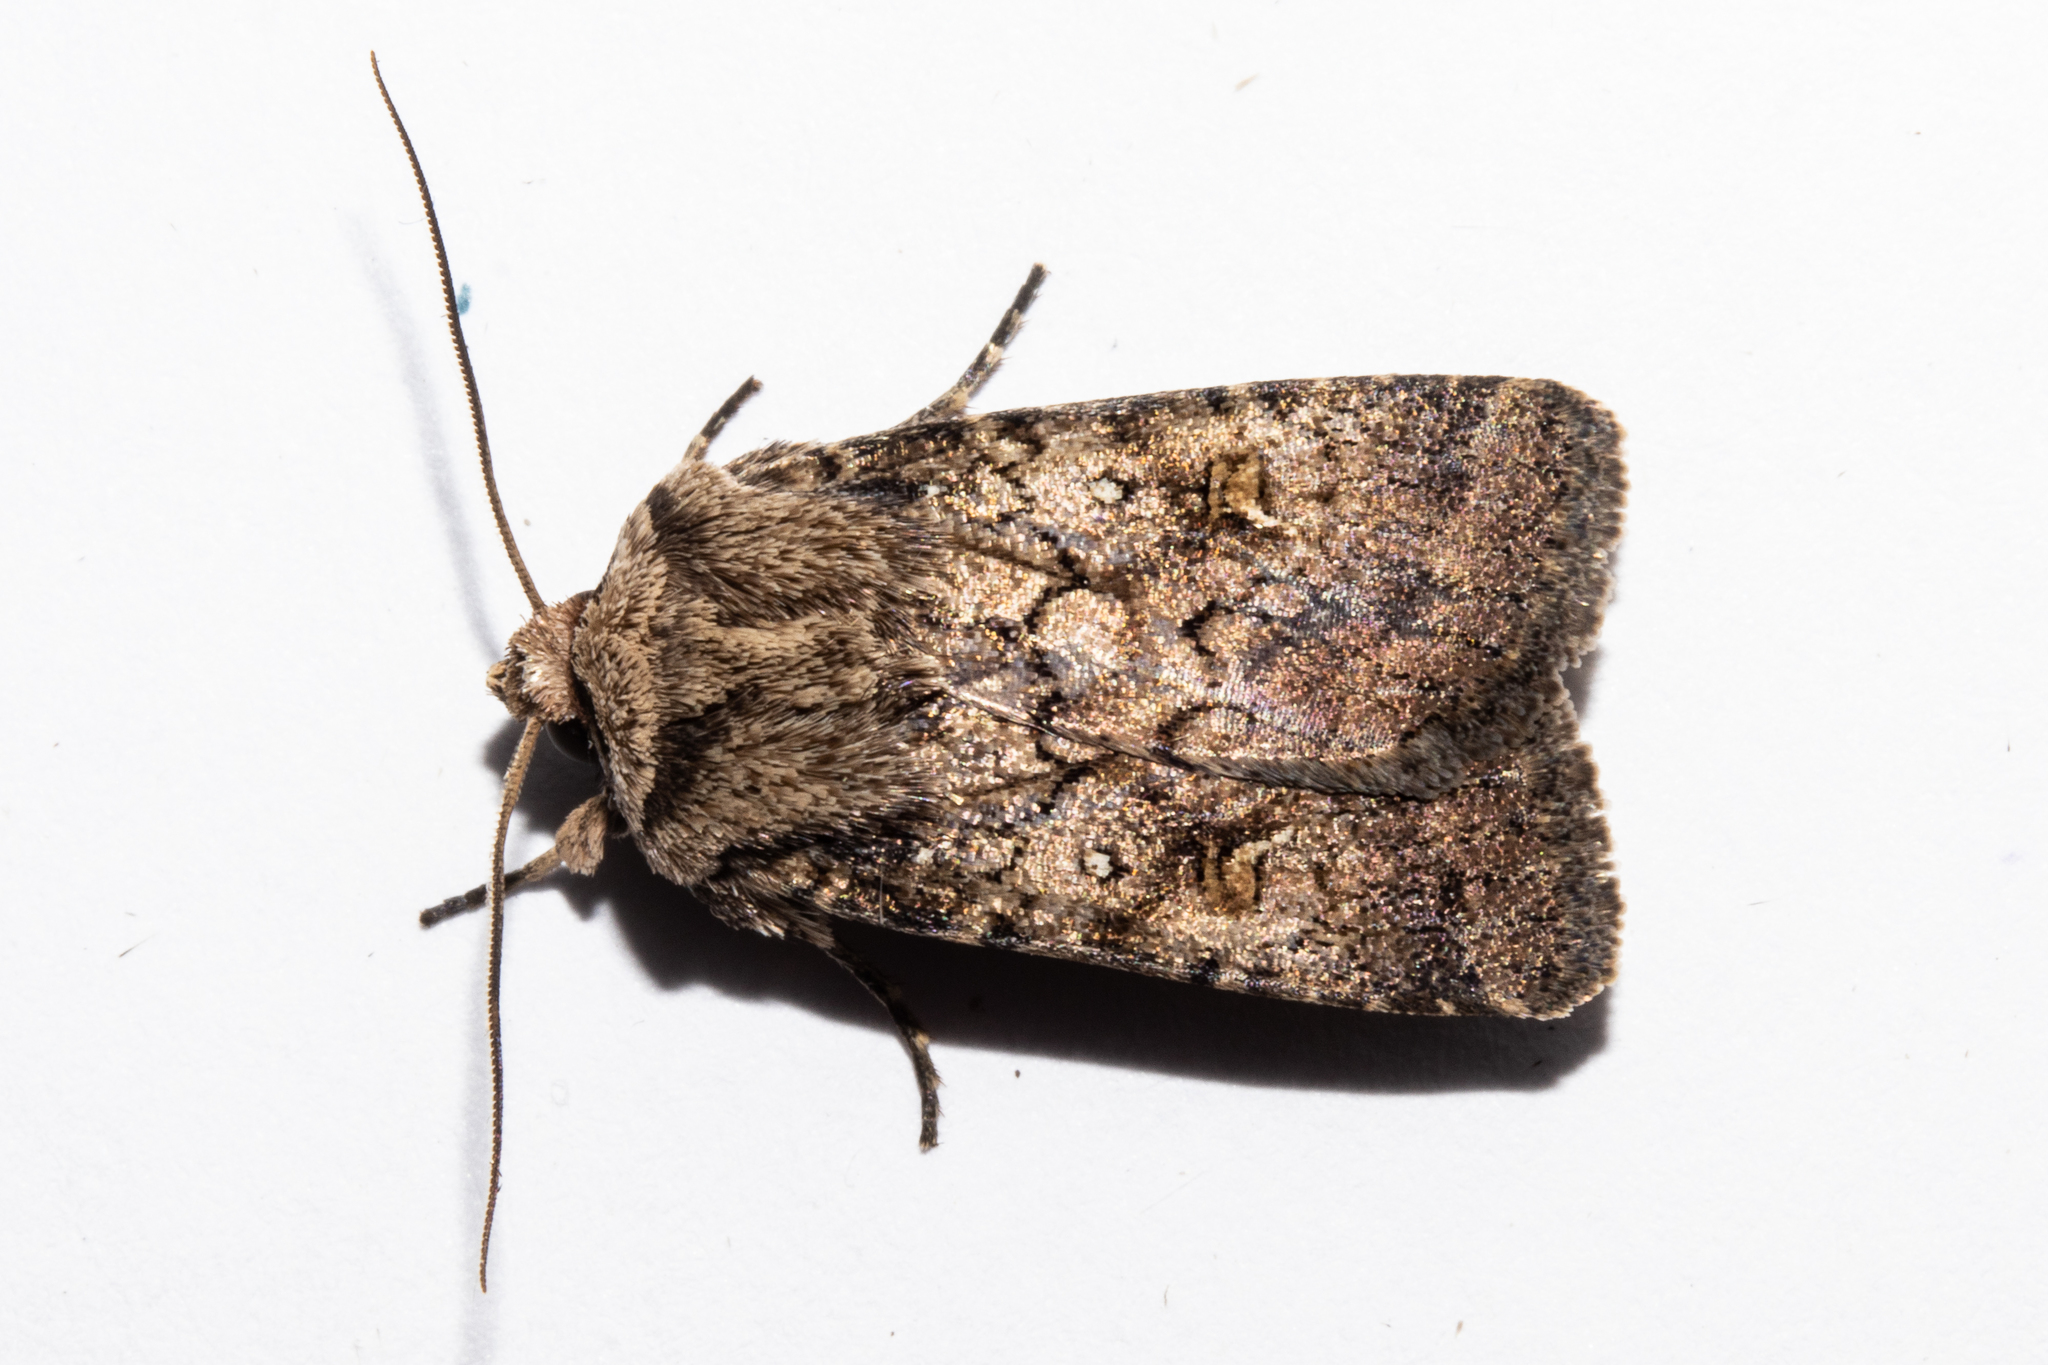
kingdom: Animalia
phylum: Arthropoda
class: Insecta
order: Lepidoptera
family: Noctuidae
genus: Proteuxoa
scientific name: Proteuxoa tetronycha
